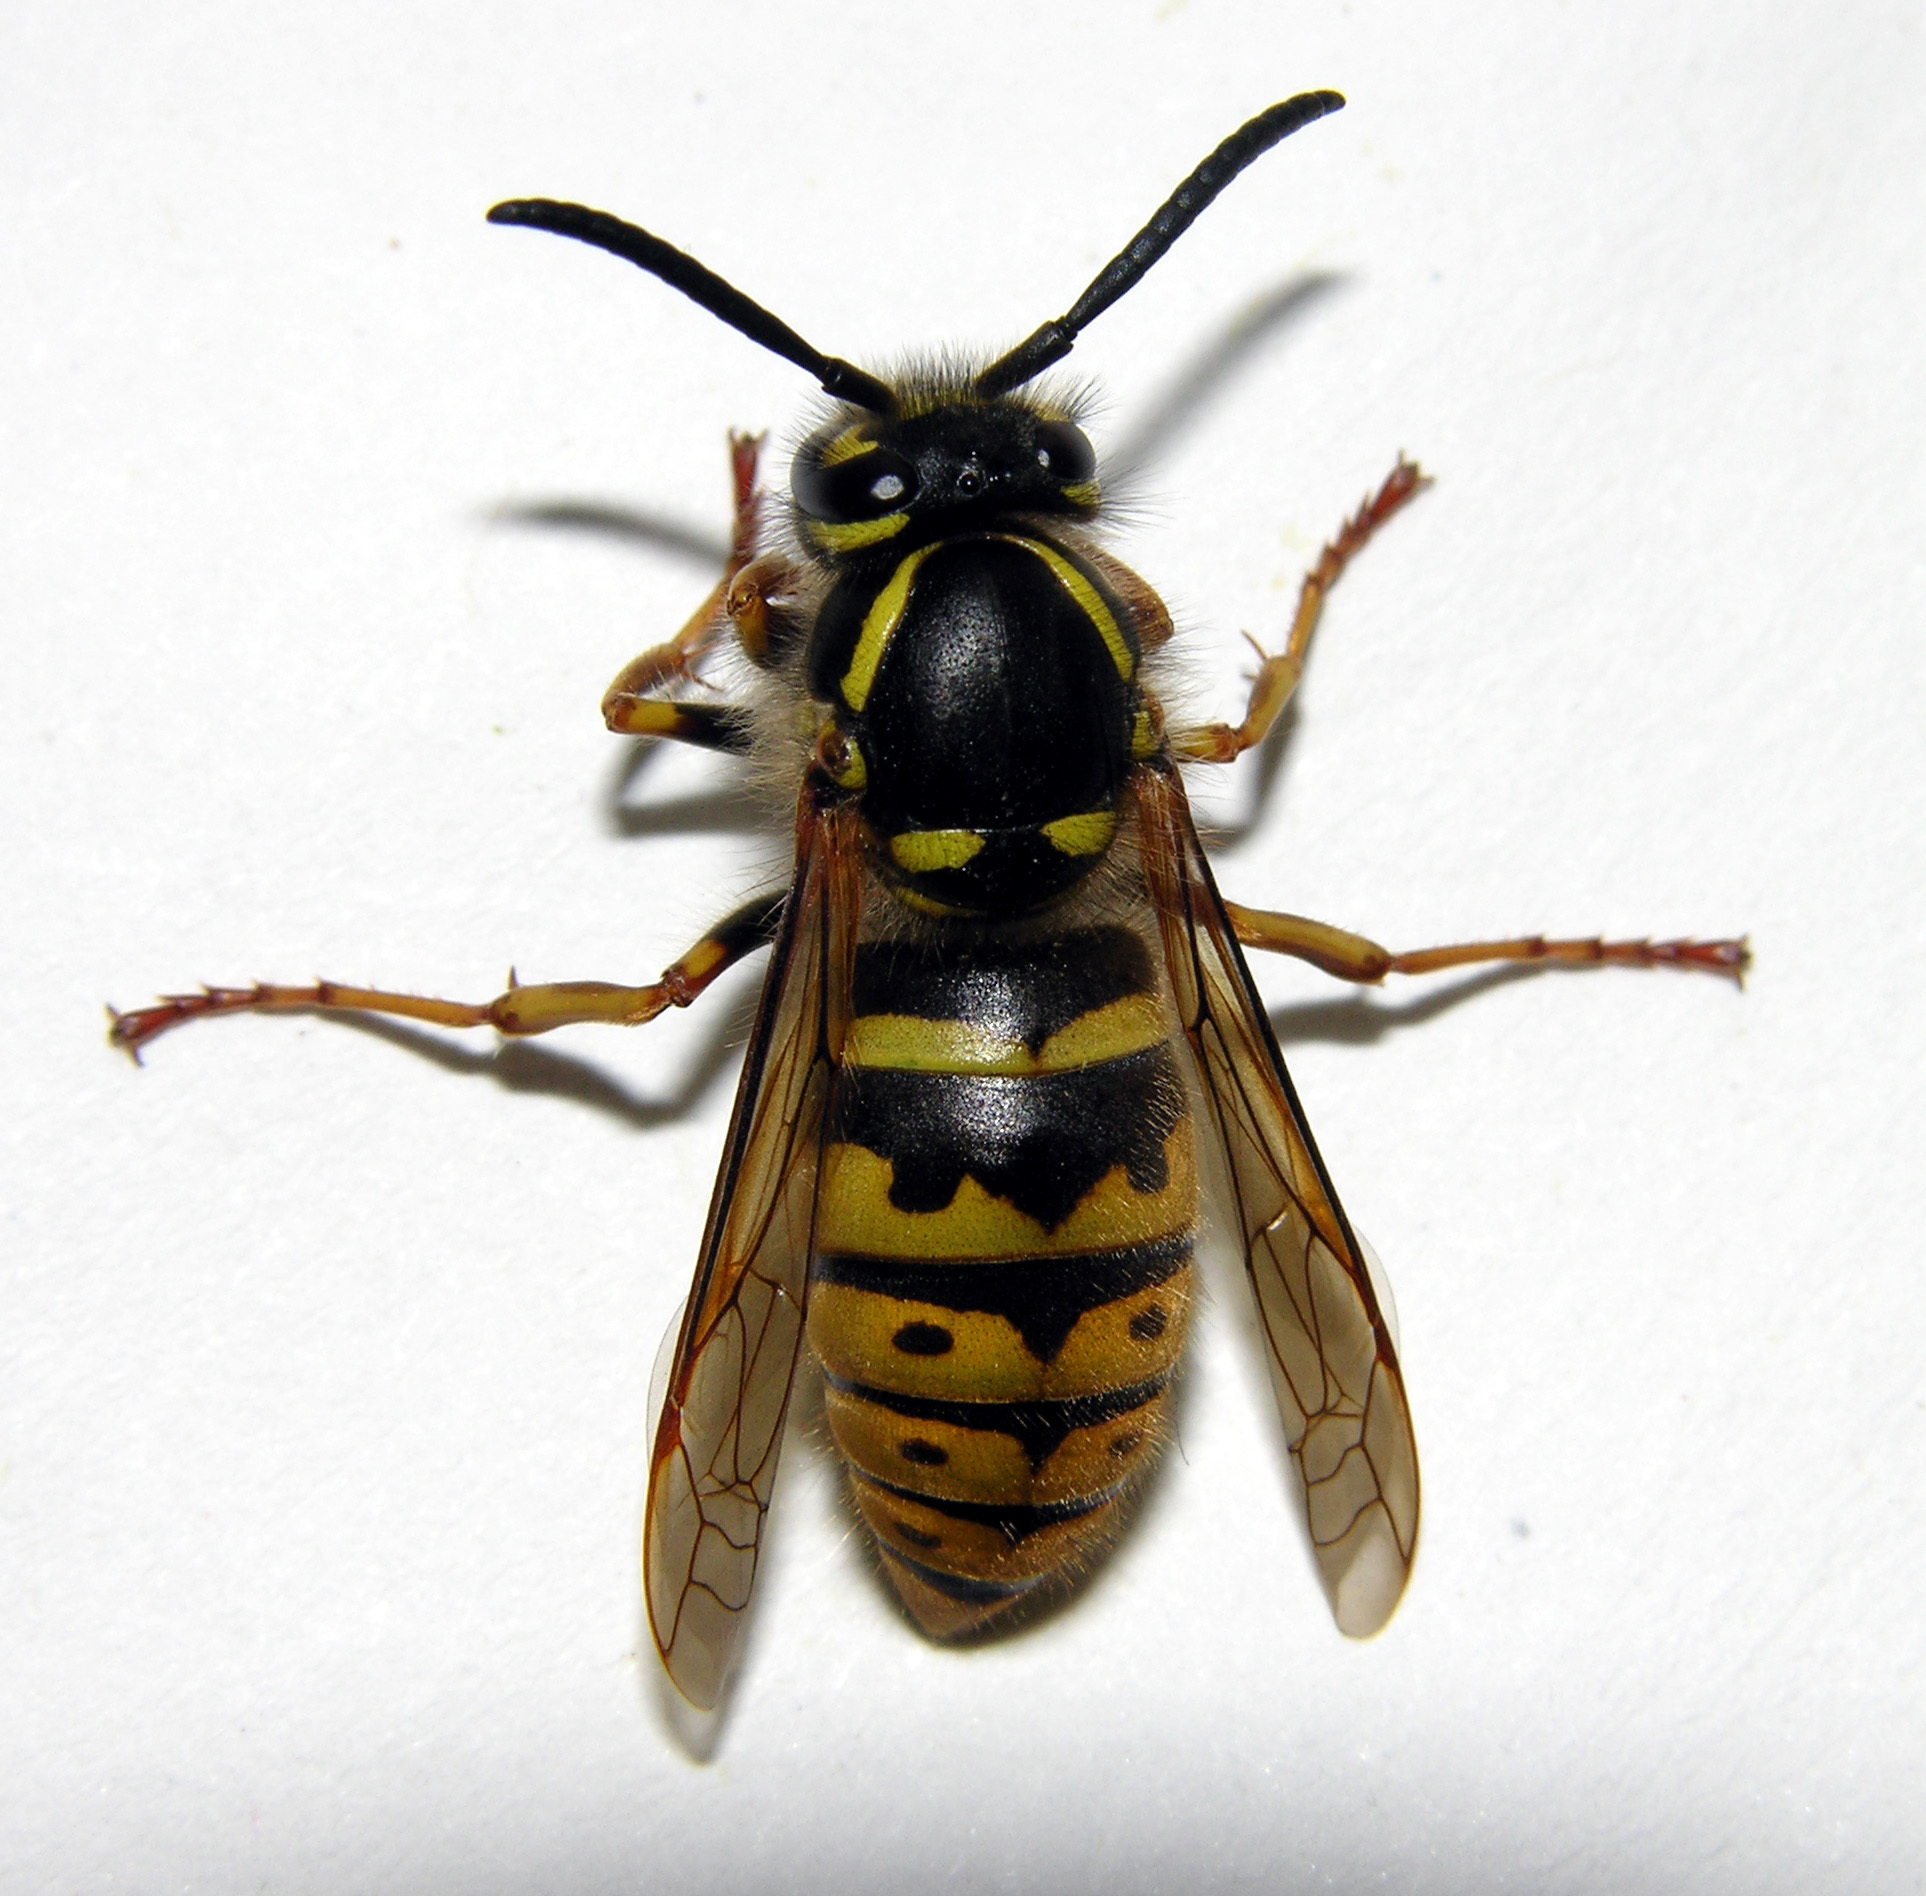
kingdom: Animalia
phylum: Arthropoda
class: Insecta
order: Hymenoptera
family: Vespidae
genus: Vespula
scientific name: Vespula vulgaris
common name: Common wasp
